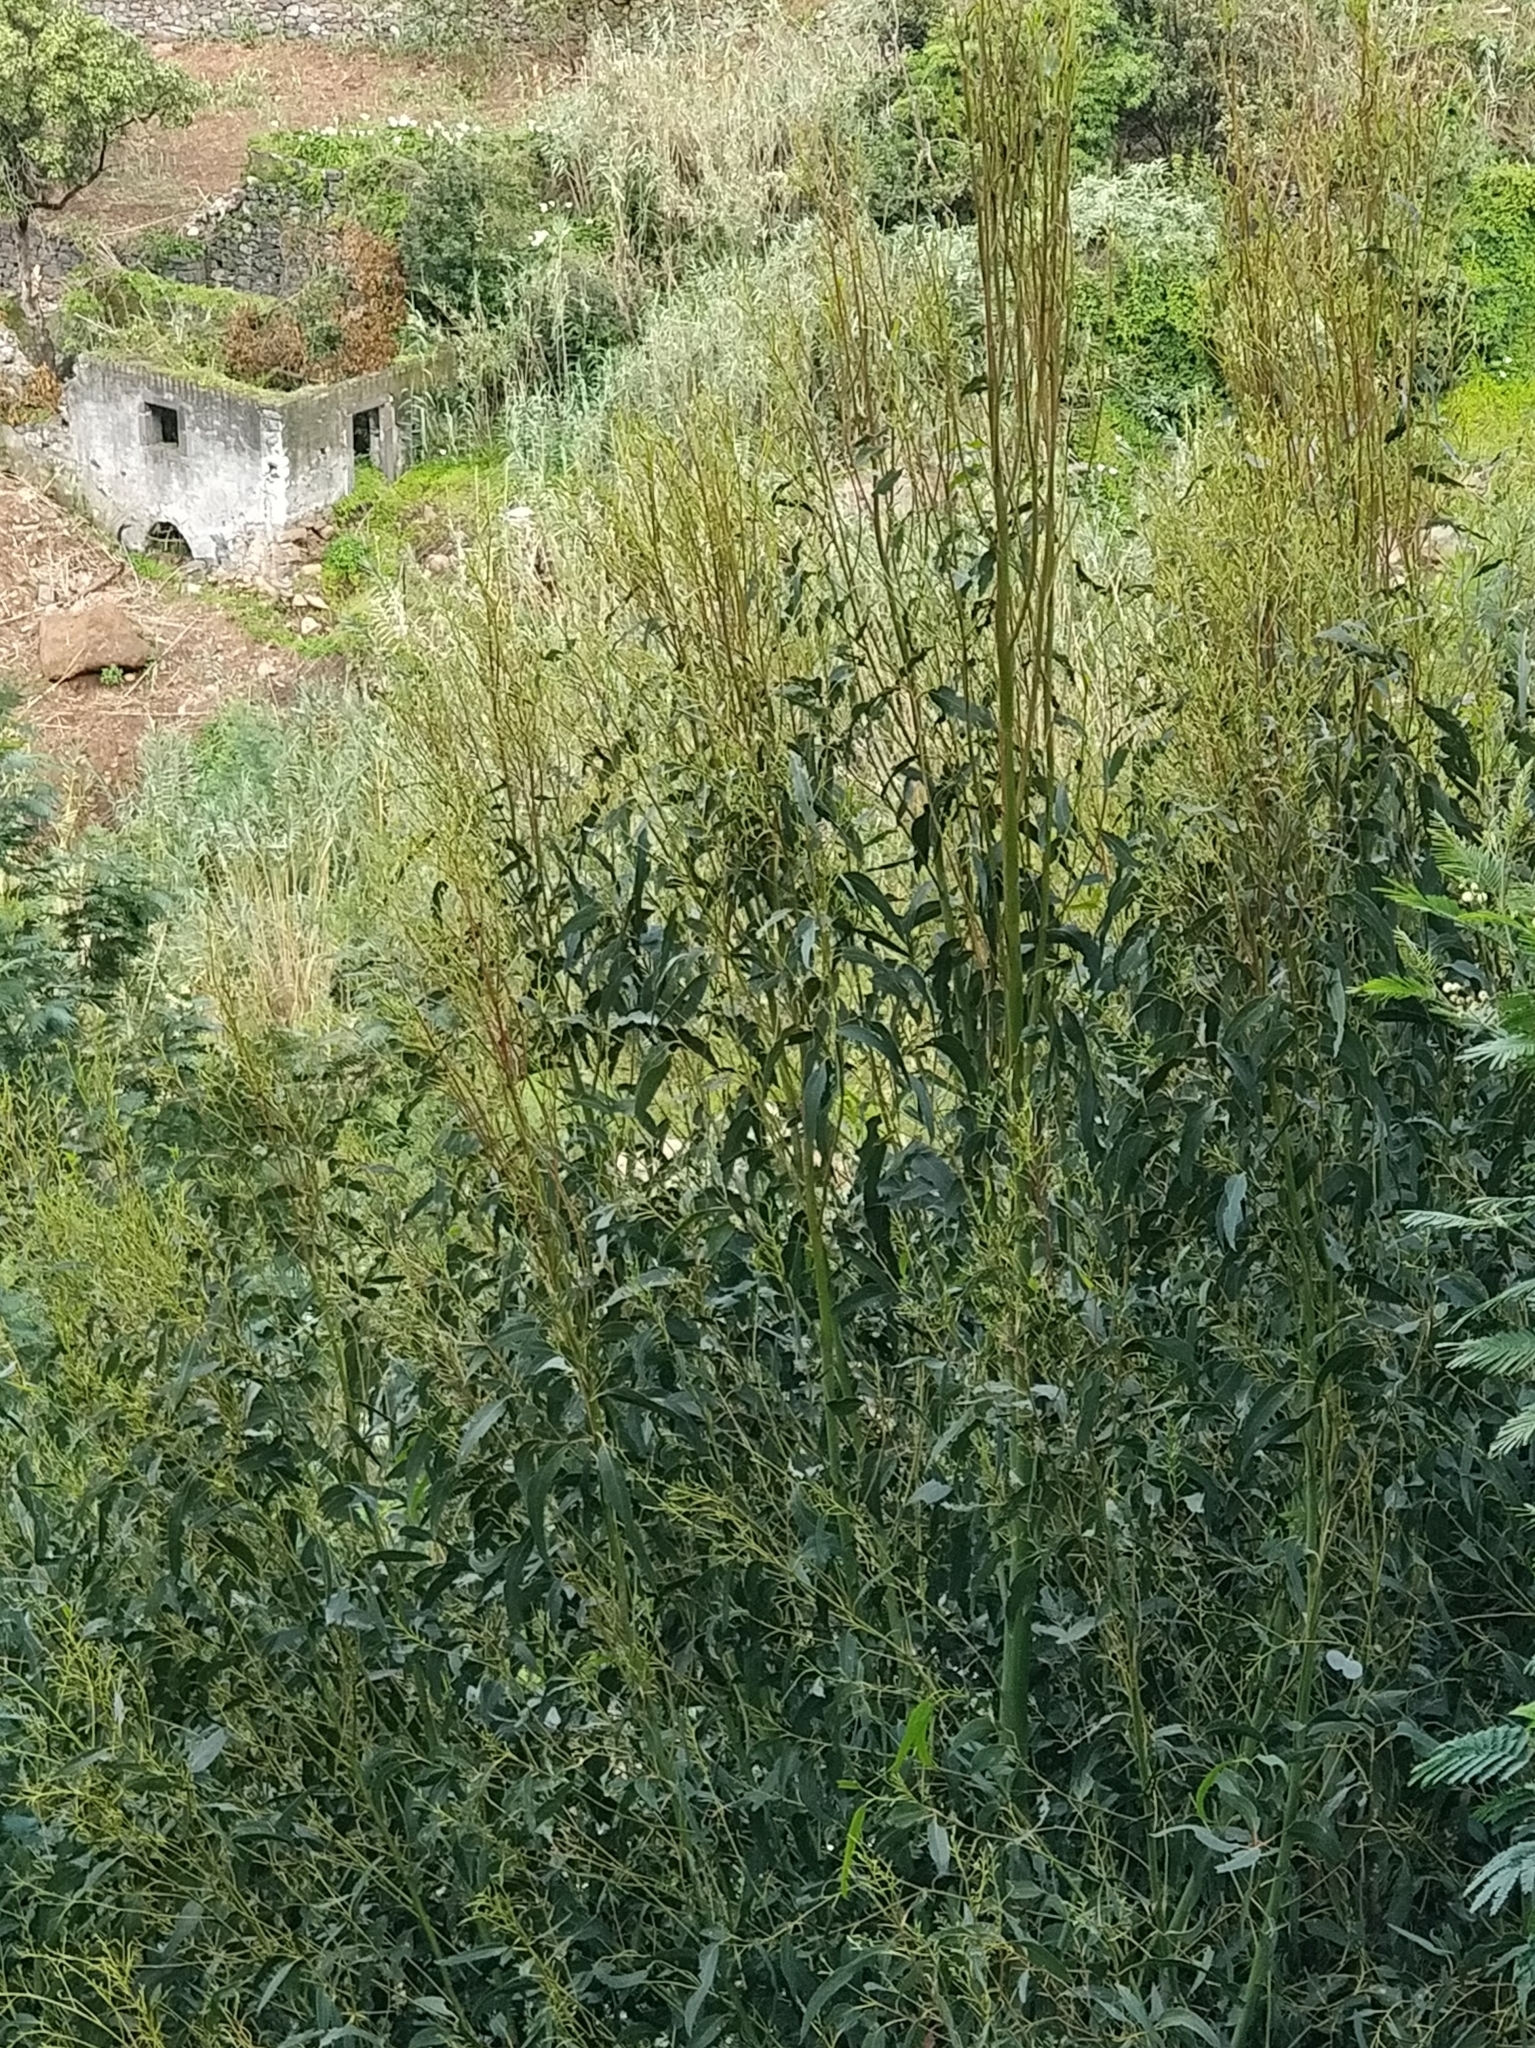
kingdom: Plantae
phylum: Tracheophyta
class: Magnoliopsida
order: Myrtales
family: Myrtaceae
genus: Eucalyptus
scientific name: Eucalyptus globulus
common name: Southern blue-gum
